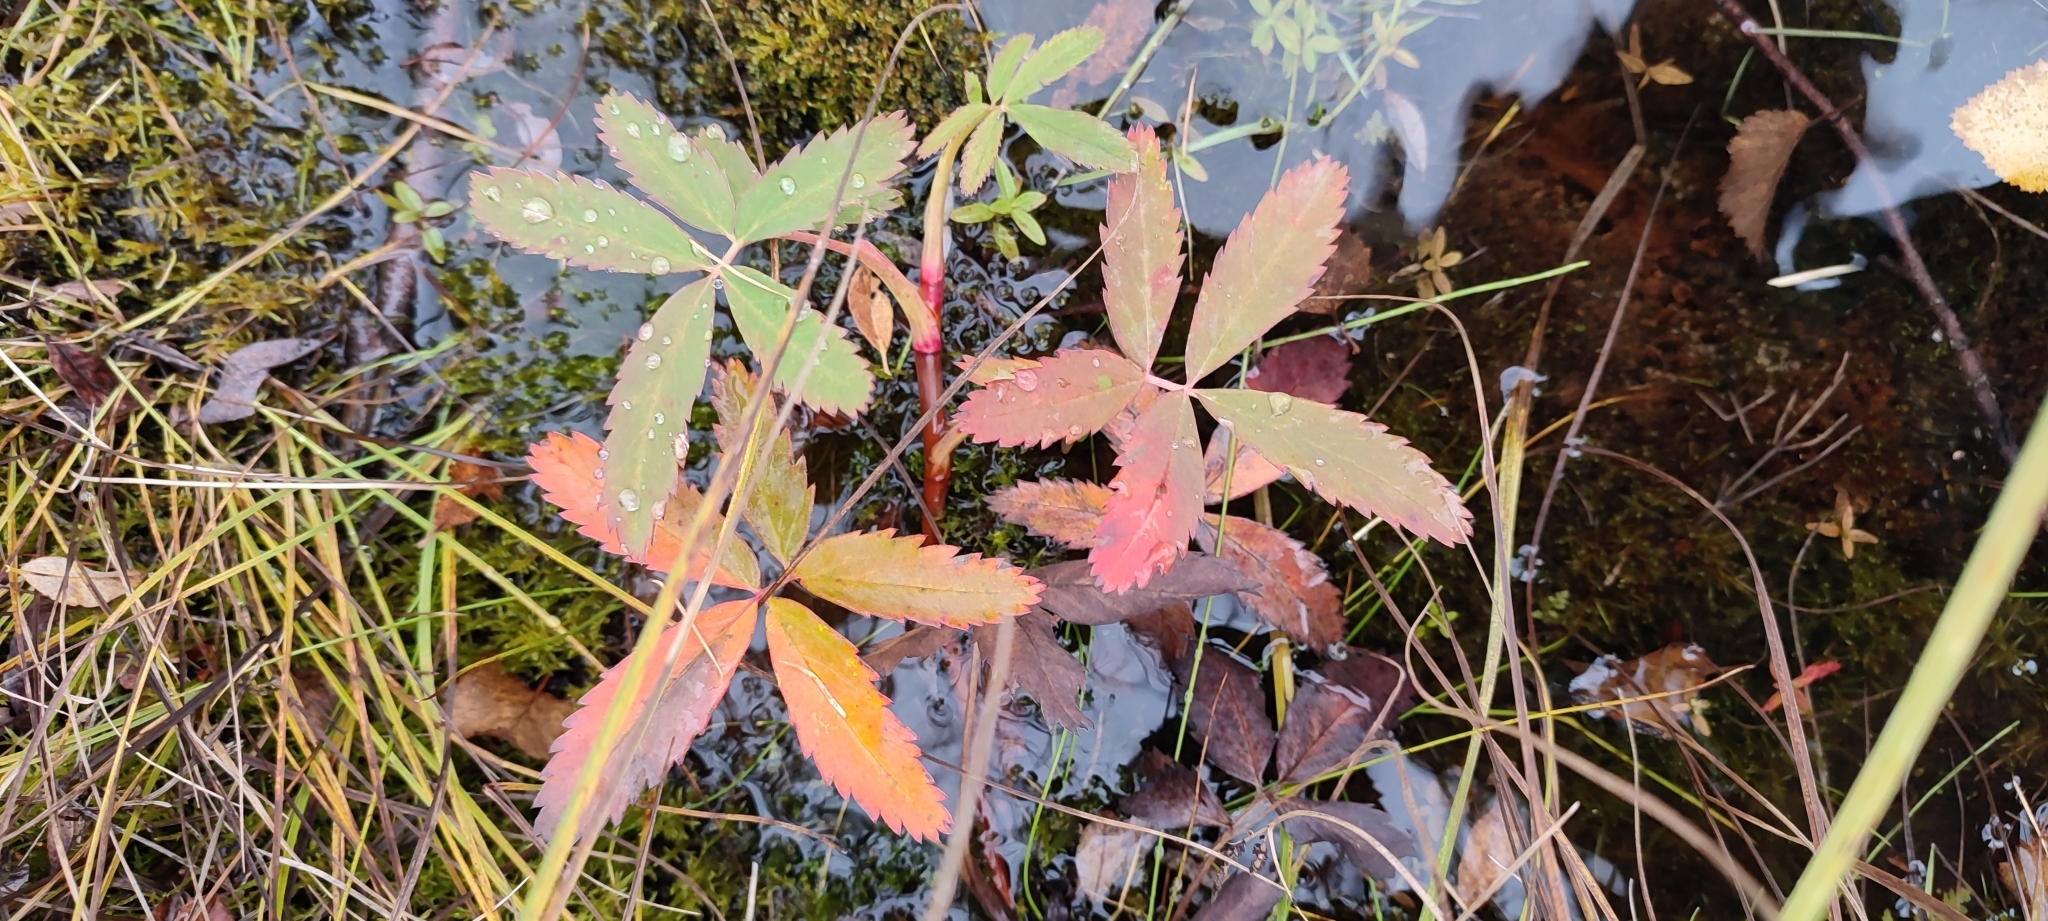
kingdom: Plantae
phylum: Tracheophyta
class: Magnoliopsida
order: Rosales
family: Rosaceae
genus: Comarum
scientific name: Comarum palustre
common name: Marsh cinquefoil
